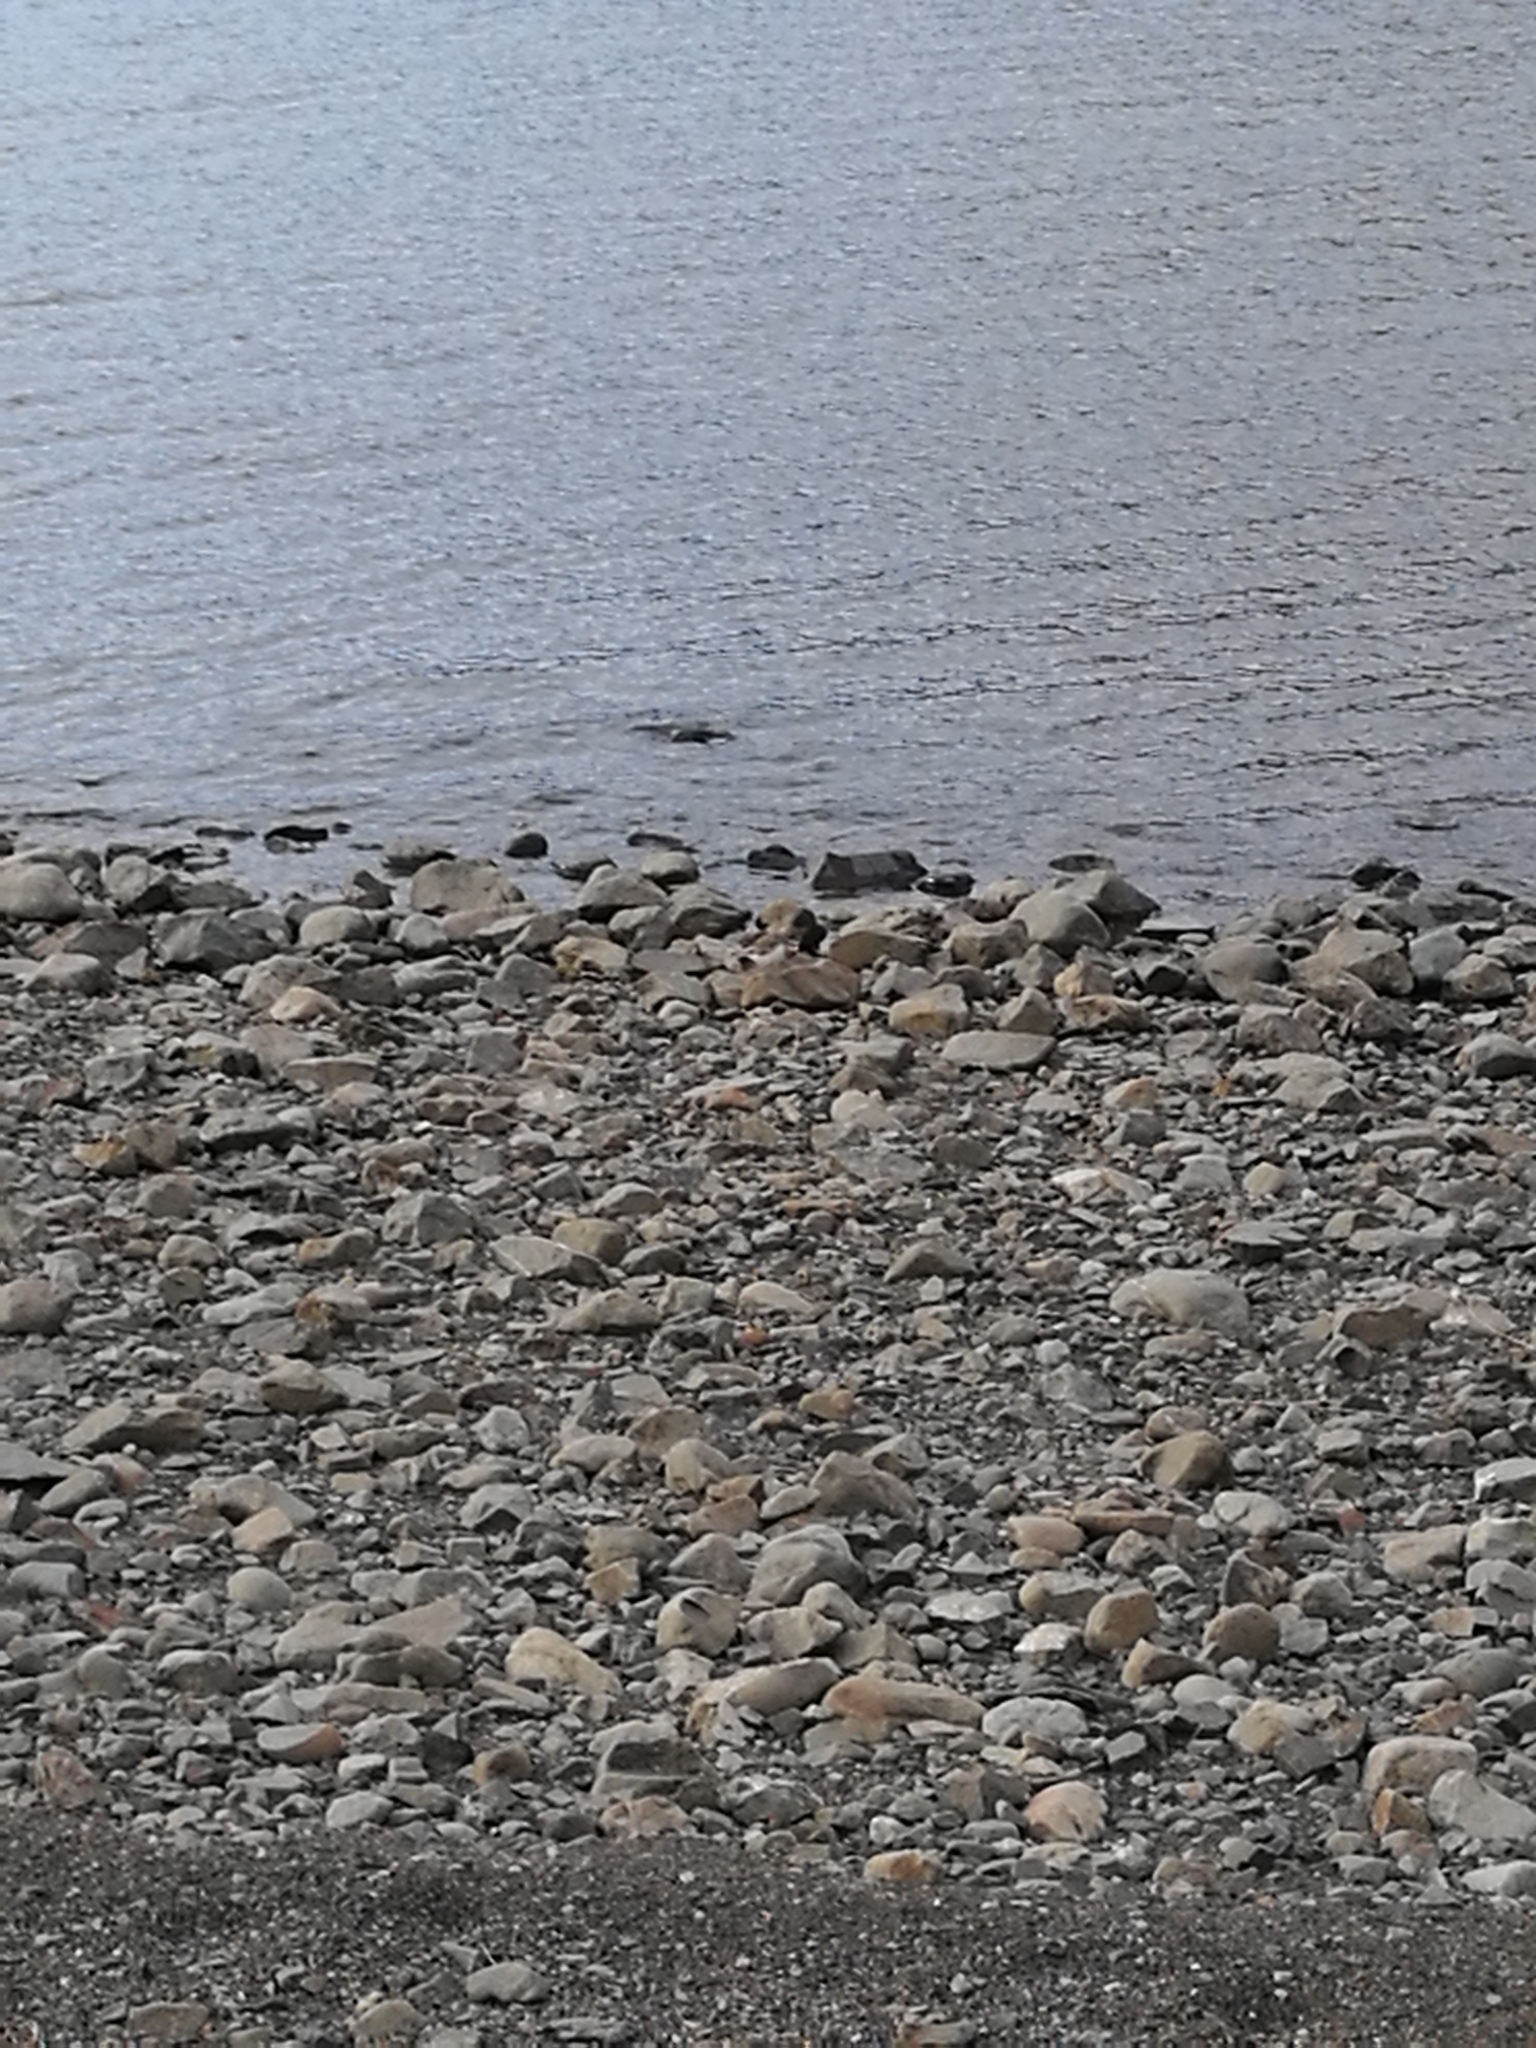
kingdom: Animalia
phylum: Chordata
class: Aves
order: Charadriiformes
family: Charadriidae
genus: Anarhynchus
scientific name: Anarhynchus
